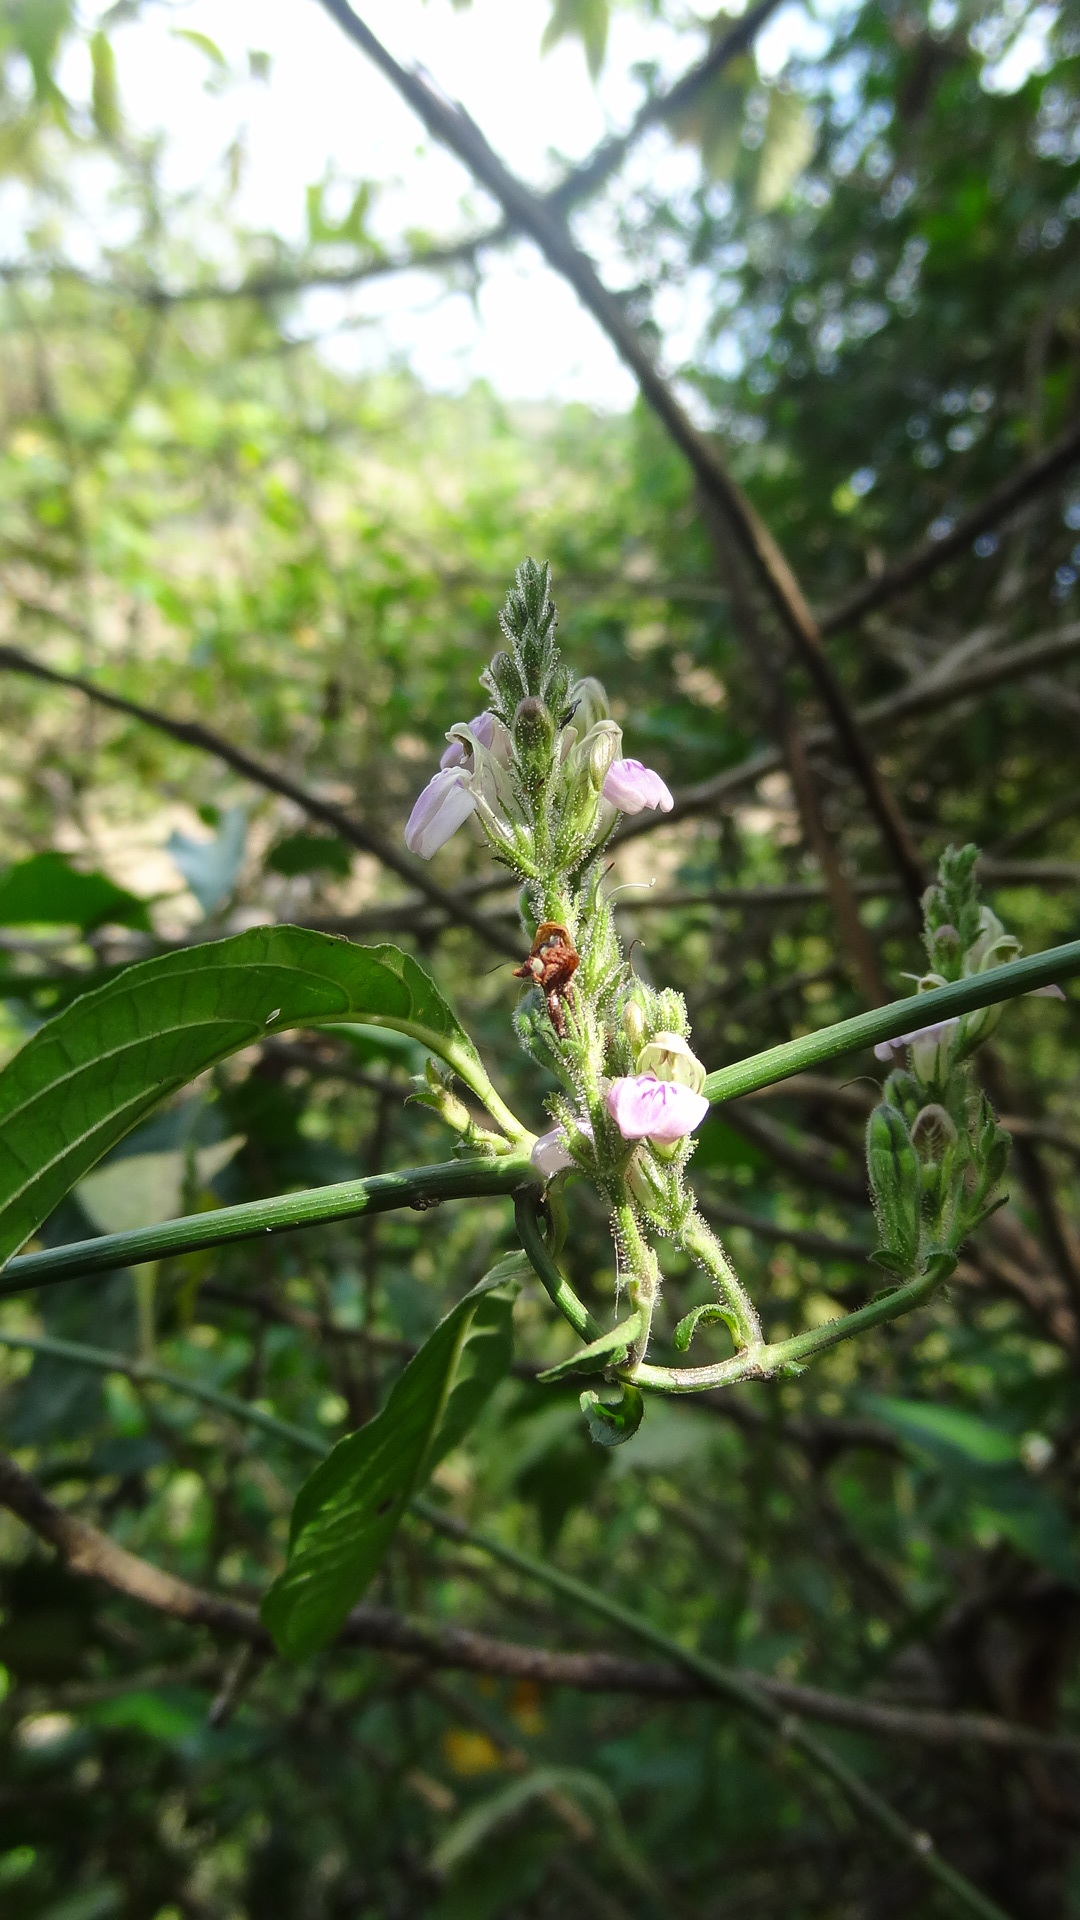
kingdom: Plantae
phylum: Tracheophyta
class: Magnoliopsida
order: Lamiales
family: Acanthaceae
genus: Justicia
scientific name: Justicia wynaadensis
